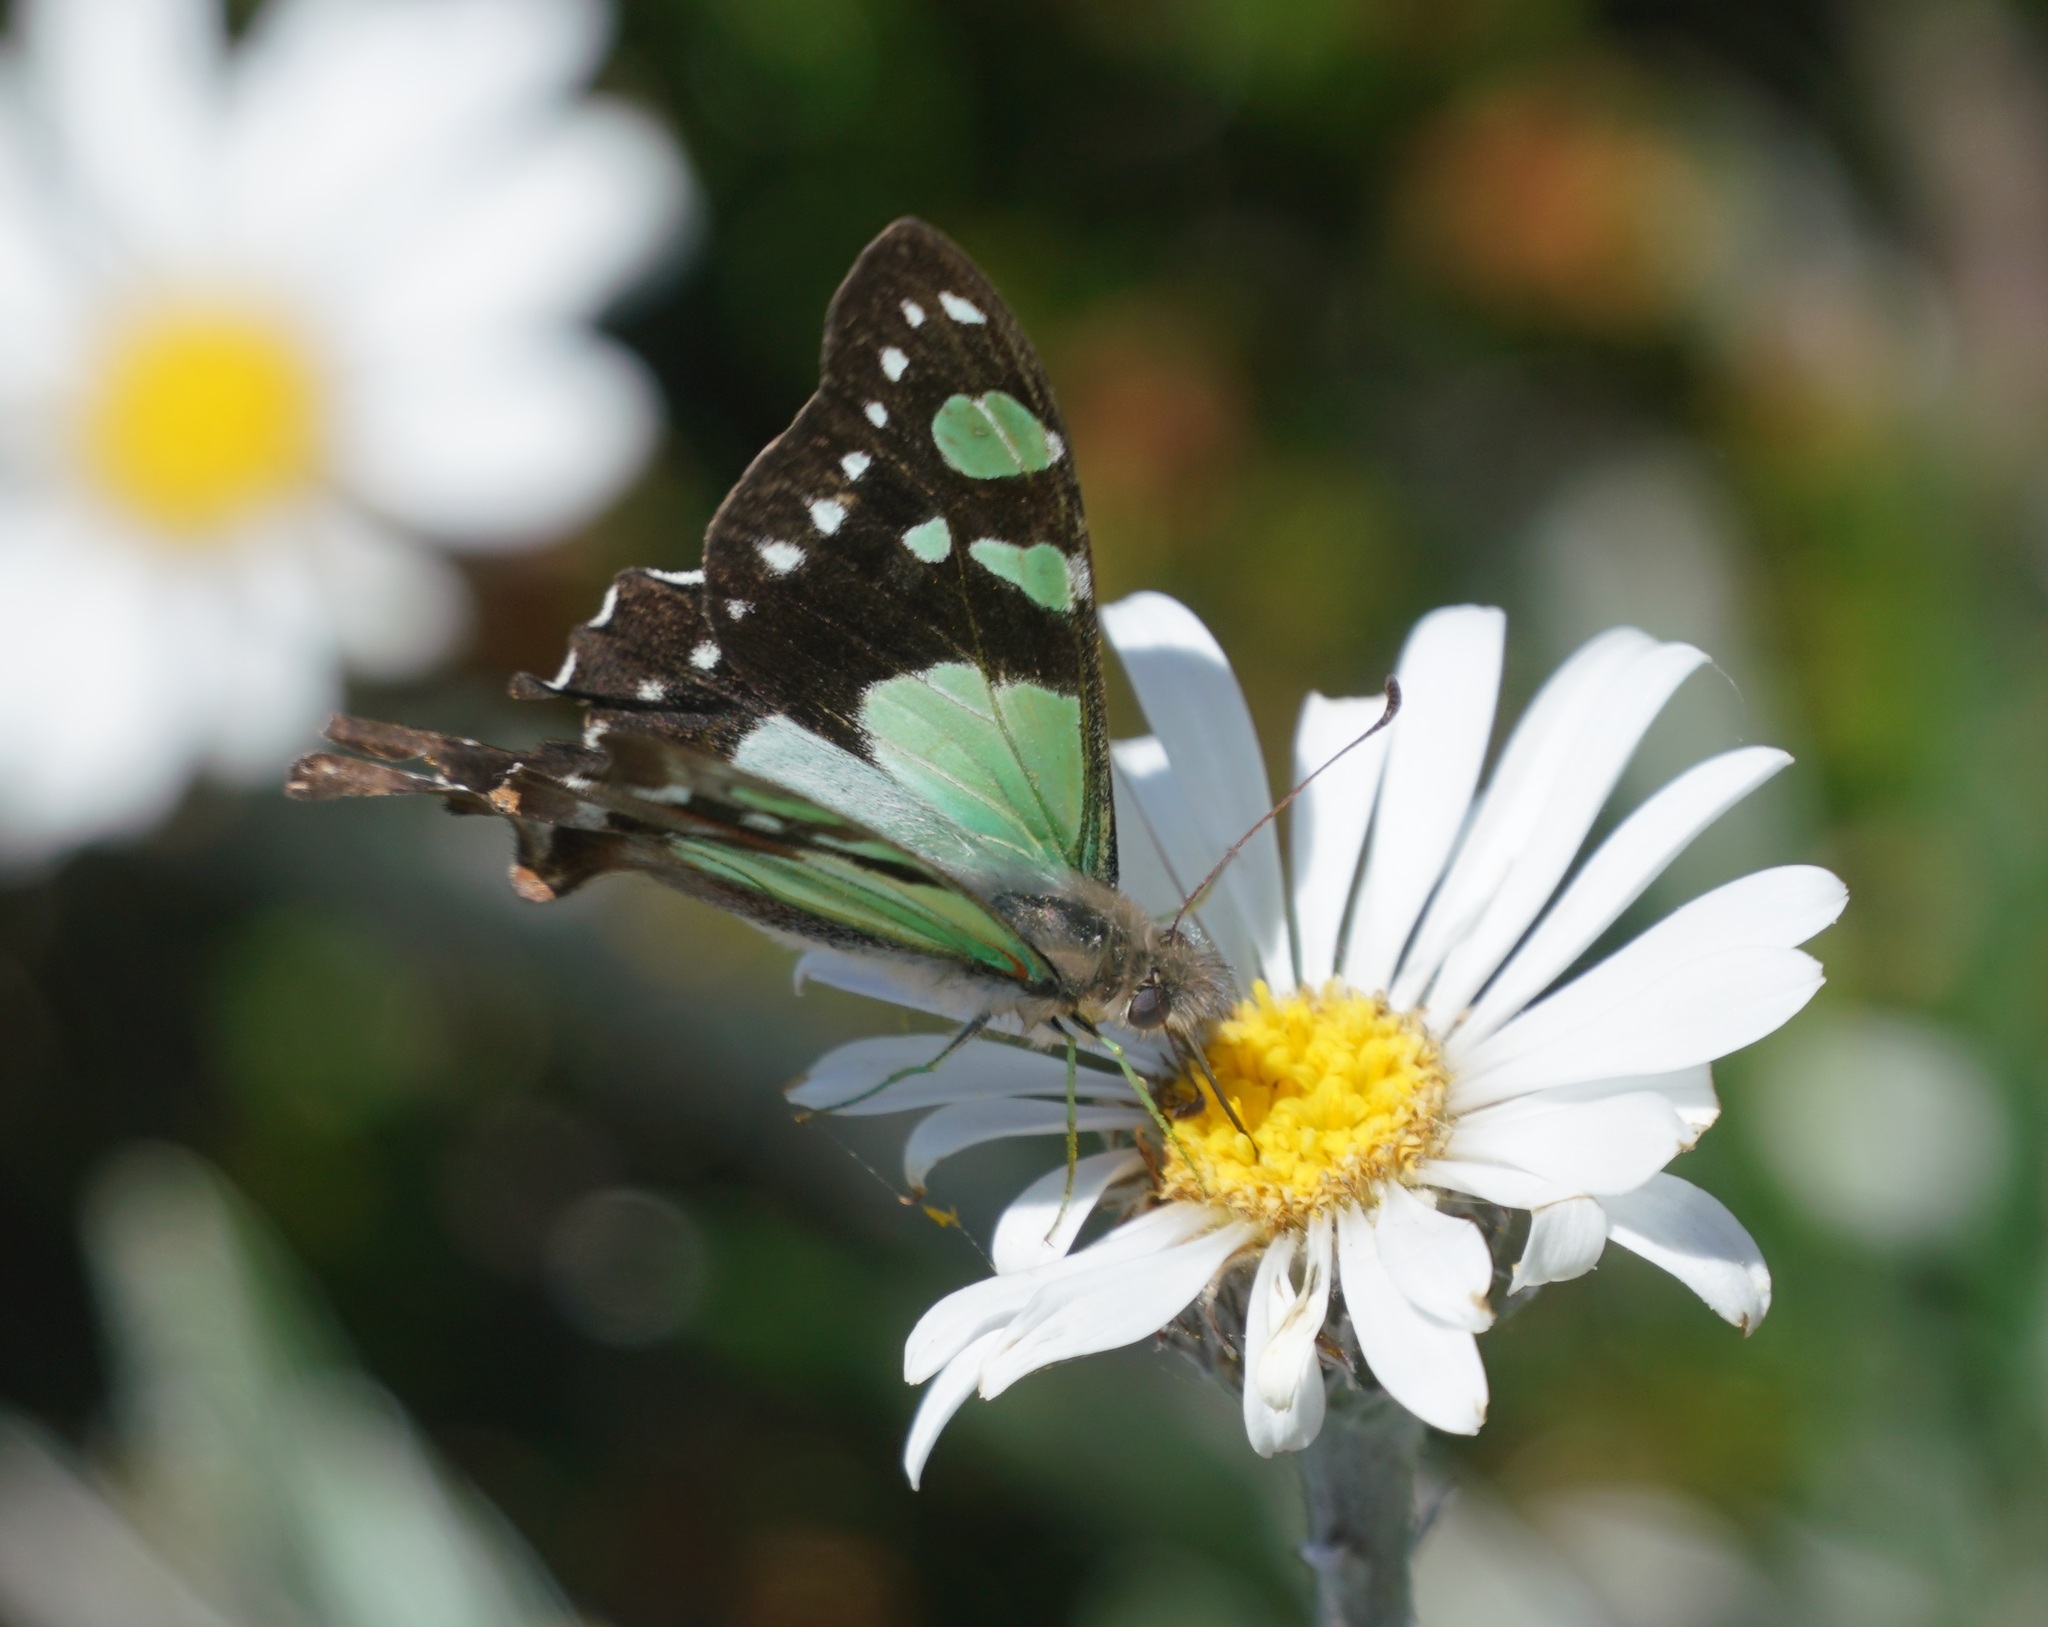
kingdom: Animalia
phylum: Arthropoda
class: Insecta
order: Lepidoptera
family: Papilionidae
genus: Graphium
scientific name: Graphium macleayanus
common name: Macleay's swallowtail
